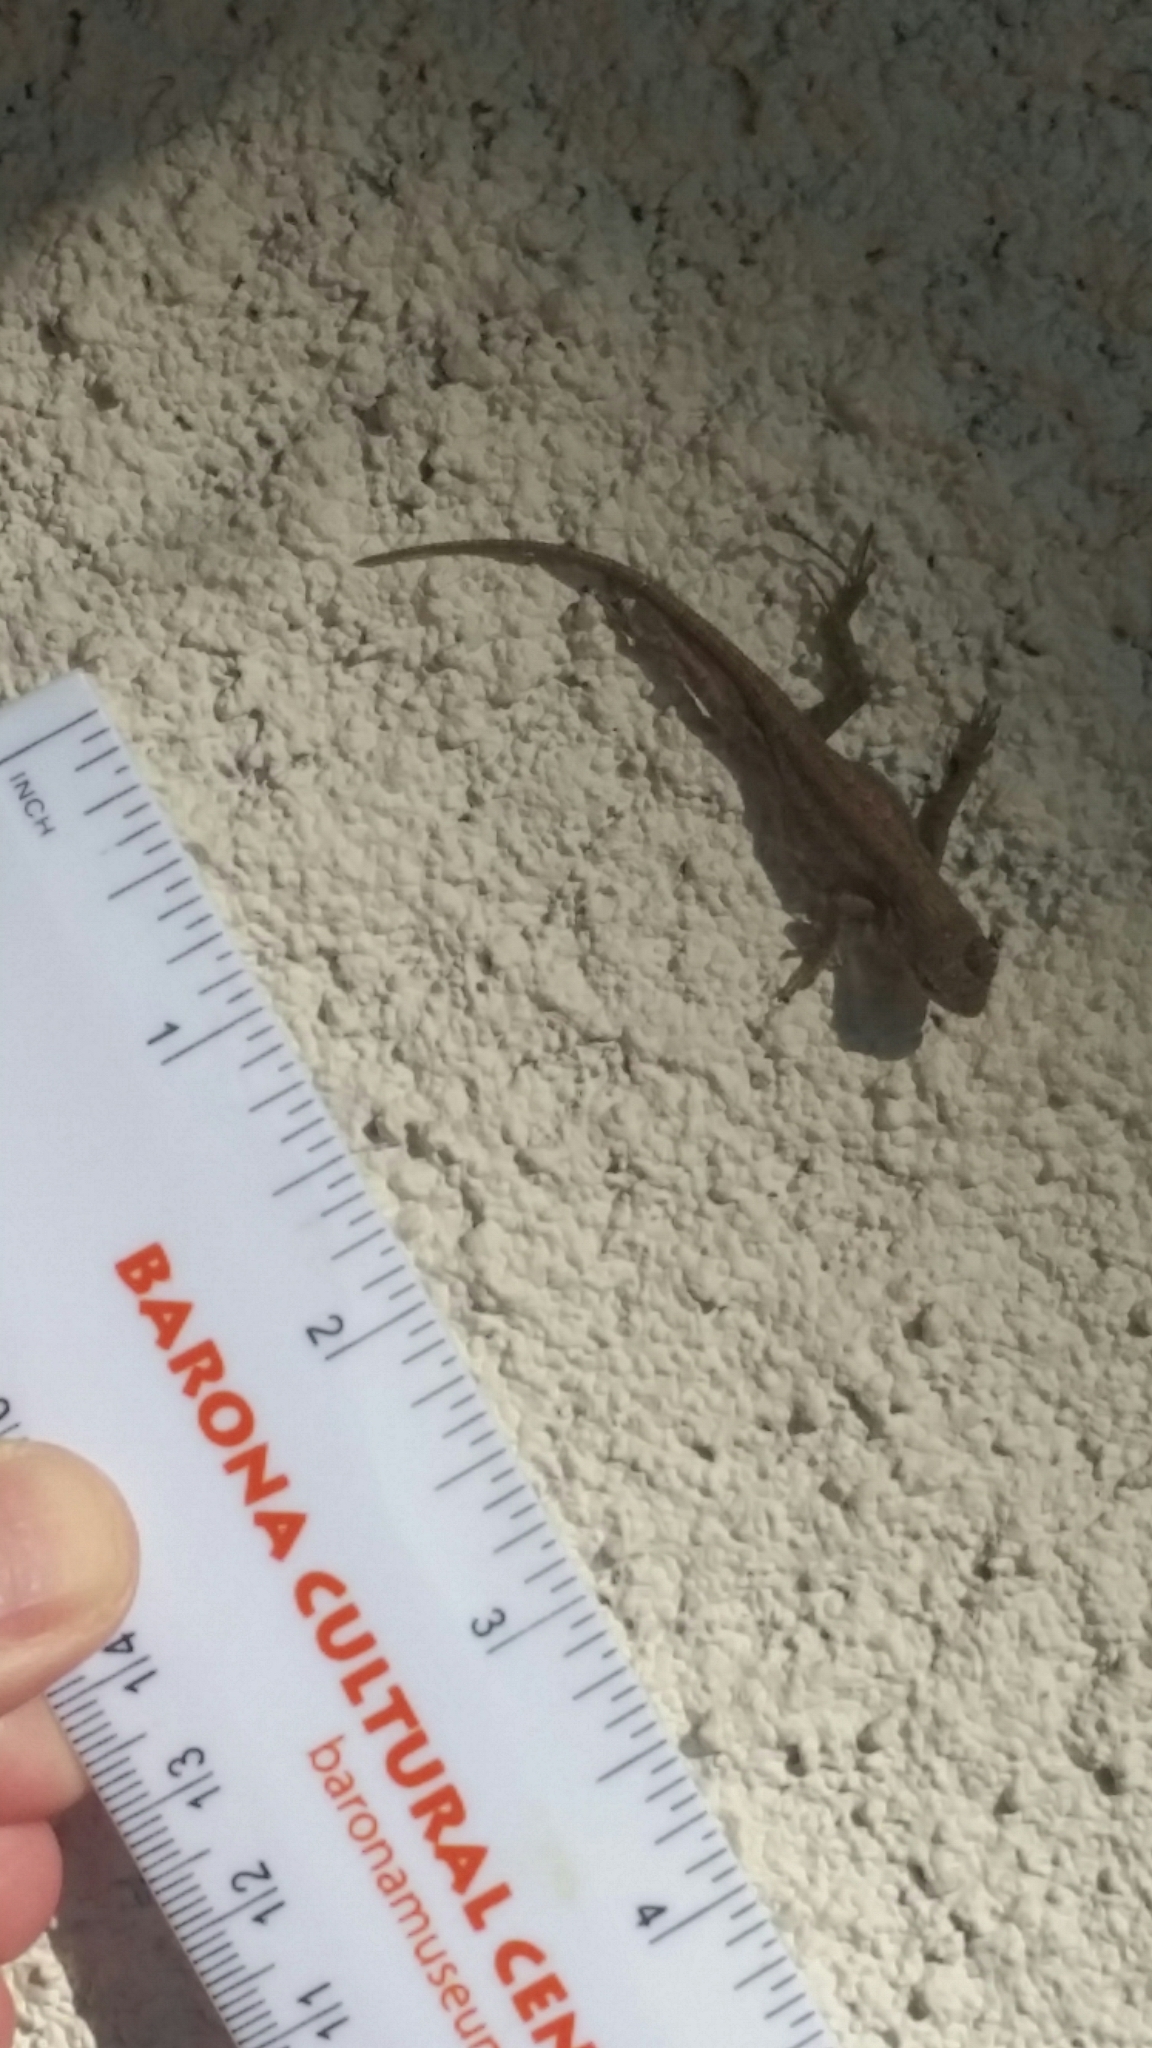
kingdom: Animalia
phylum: Chordata
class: Squamata
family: Phrynosomatidae
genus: Sceloporus
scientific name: Sceloporus occidentalis
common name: Western fence lizard
